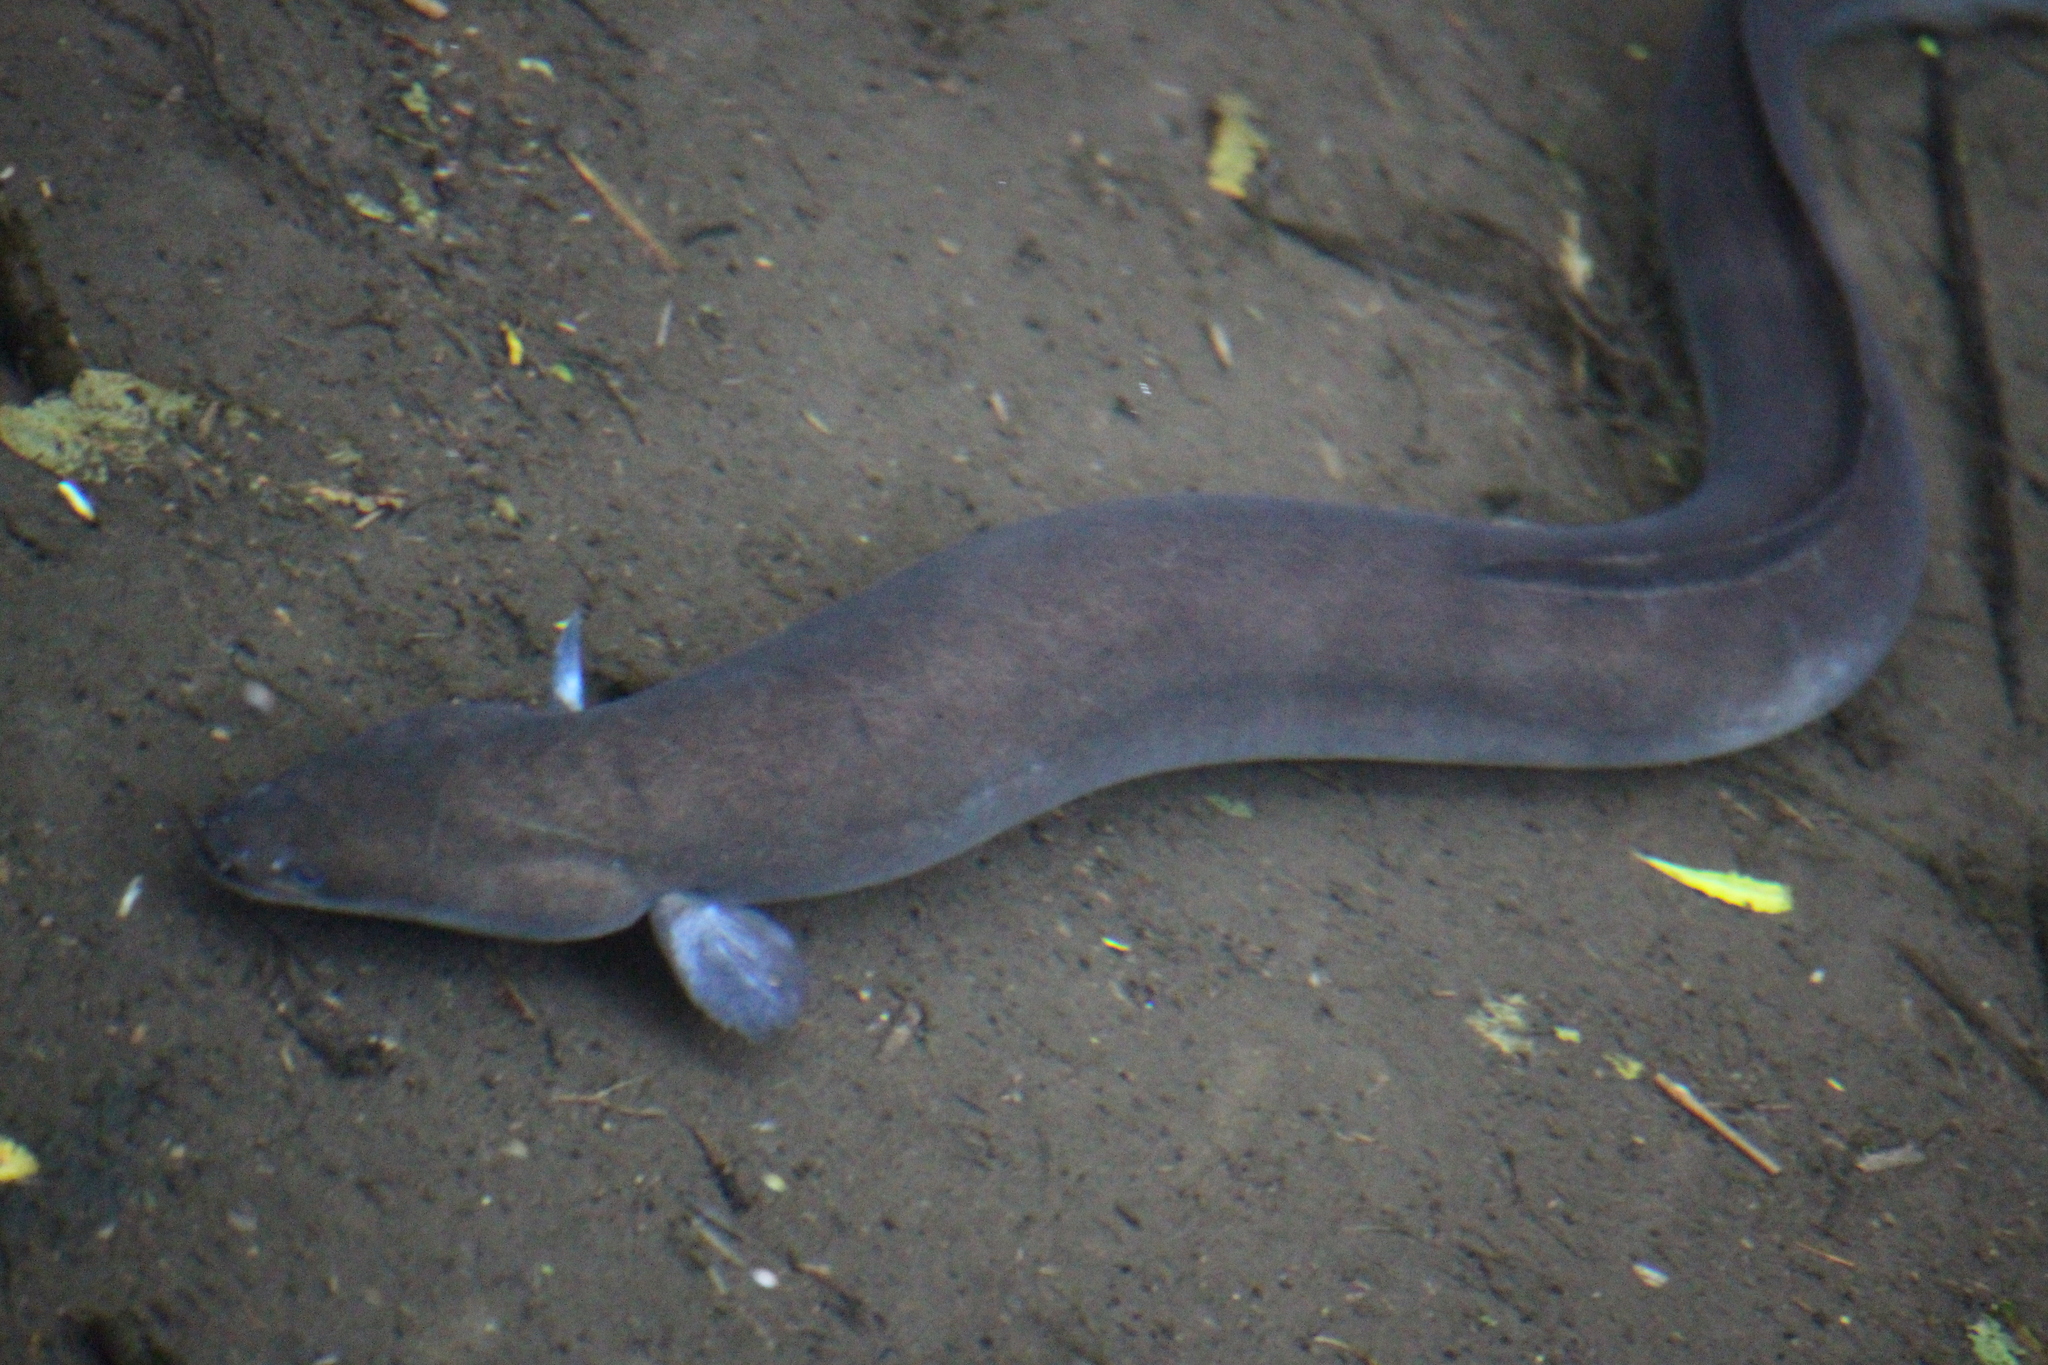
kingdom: Animalia
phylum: Chordata
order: Anguilliformes
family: Anguillidae
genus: Anguilla
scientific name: Anguilla australis
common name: Shortfin eel
